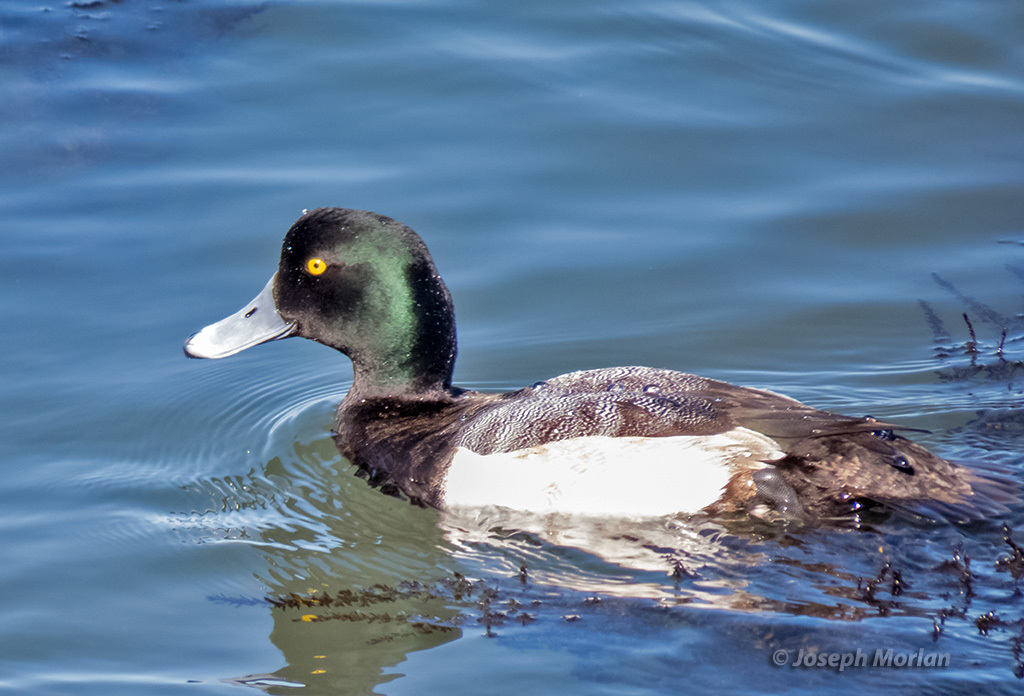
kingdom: Animalia
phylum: Chordata
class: Aves
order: Anseriformes
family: Anatidae
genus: Aythya
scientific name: Aythya marila
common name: Greater scaup
